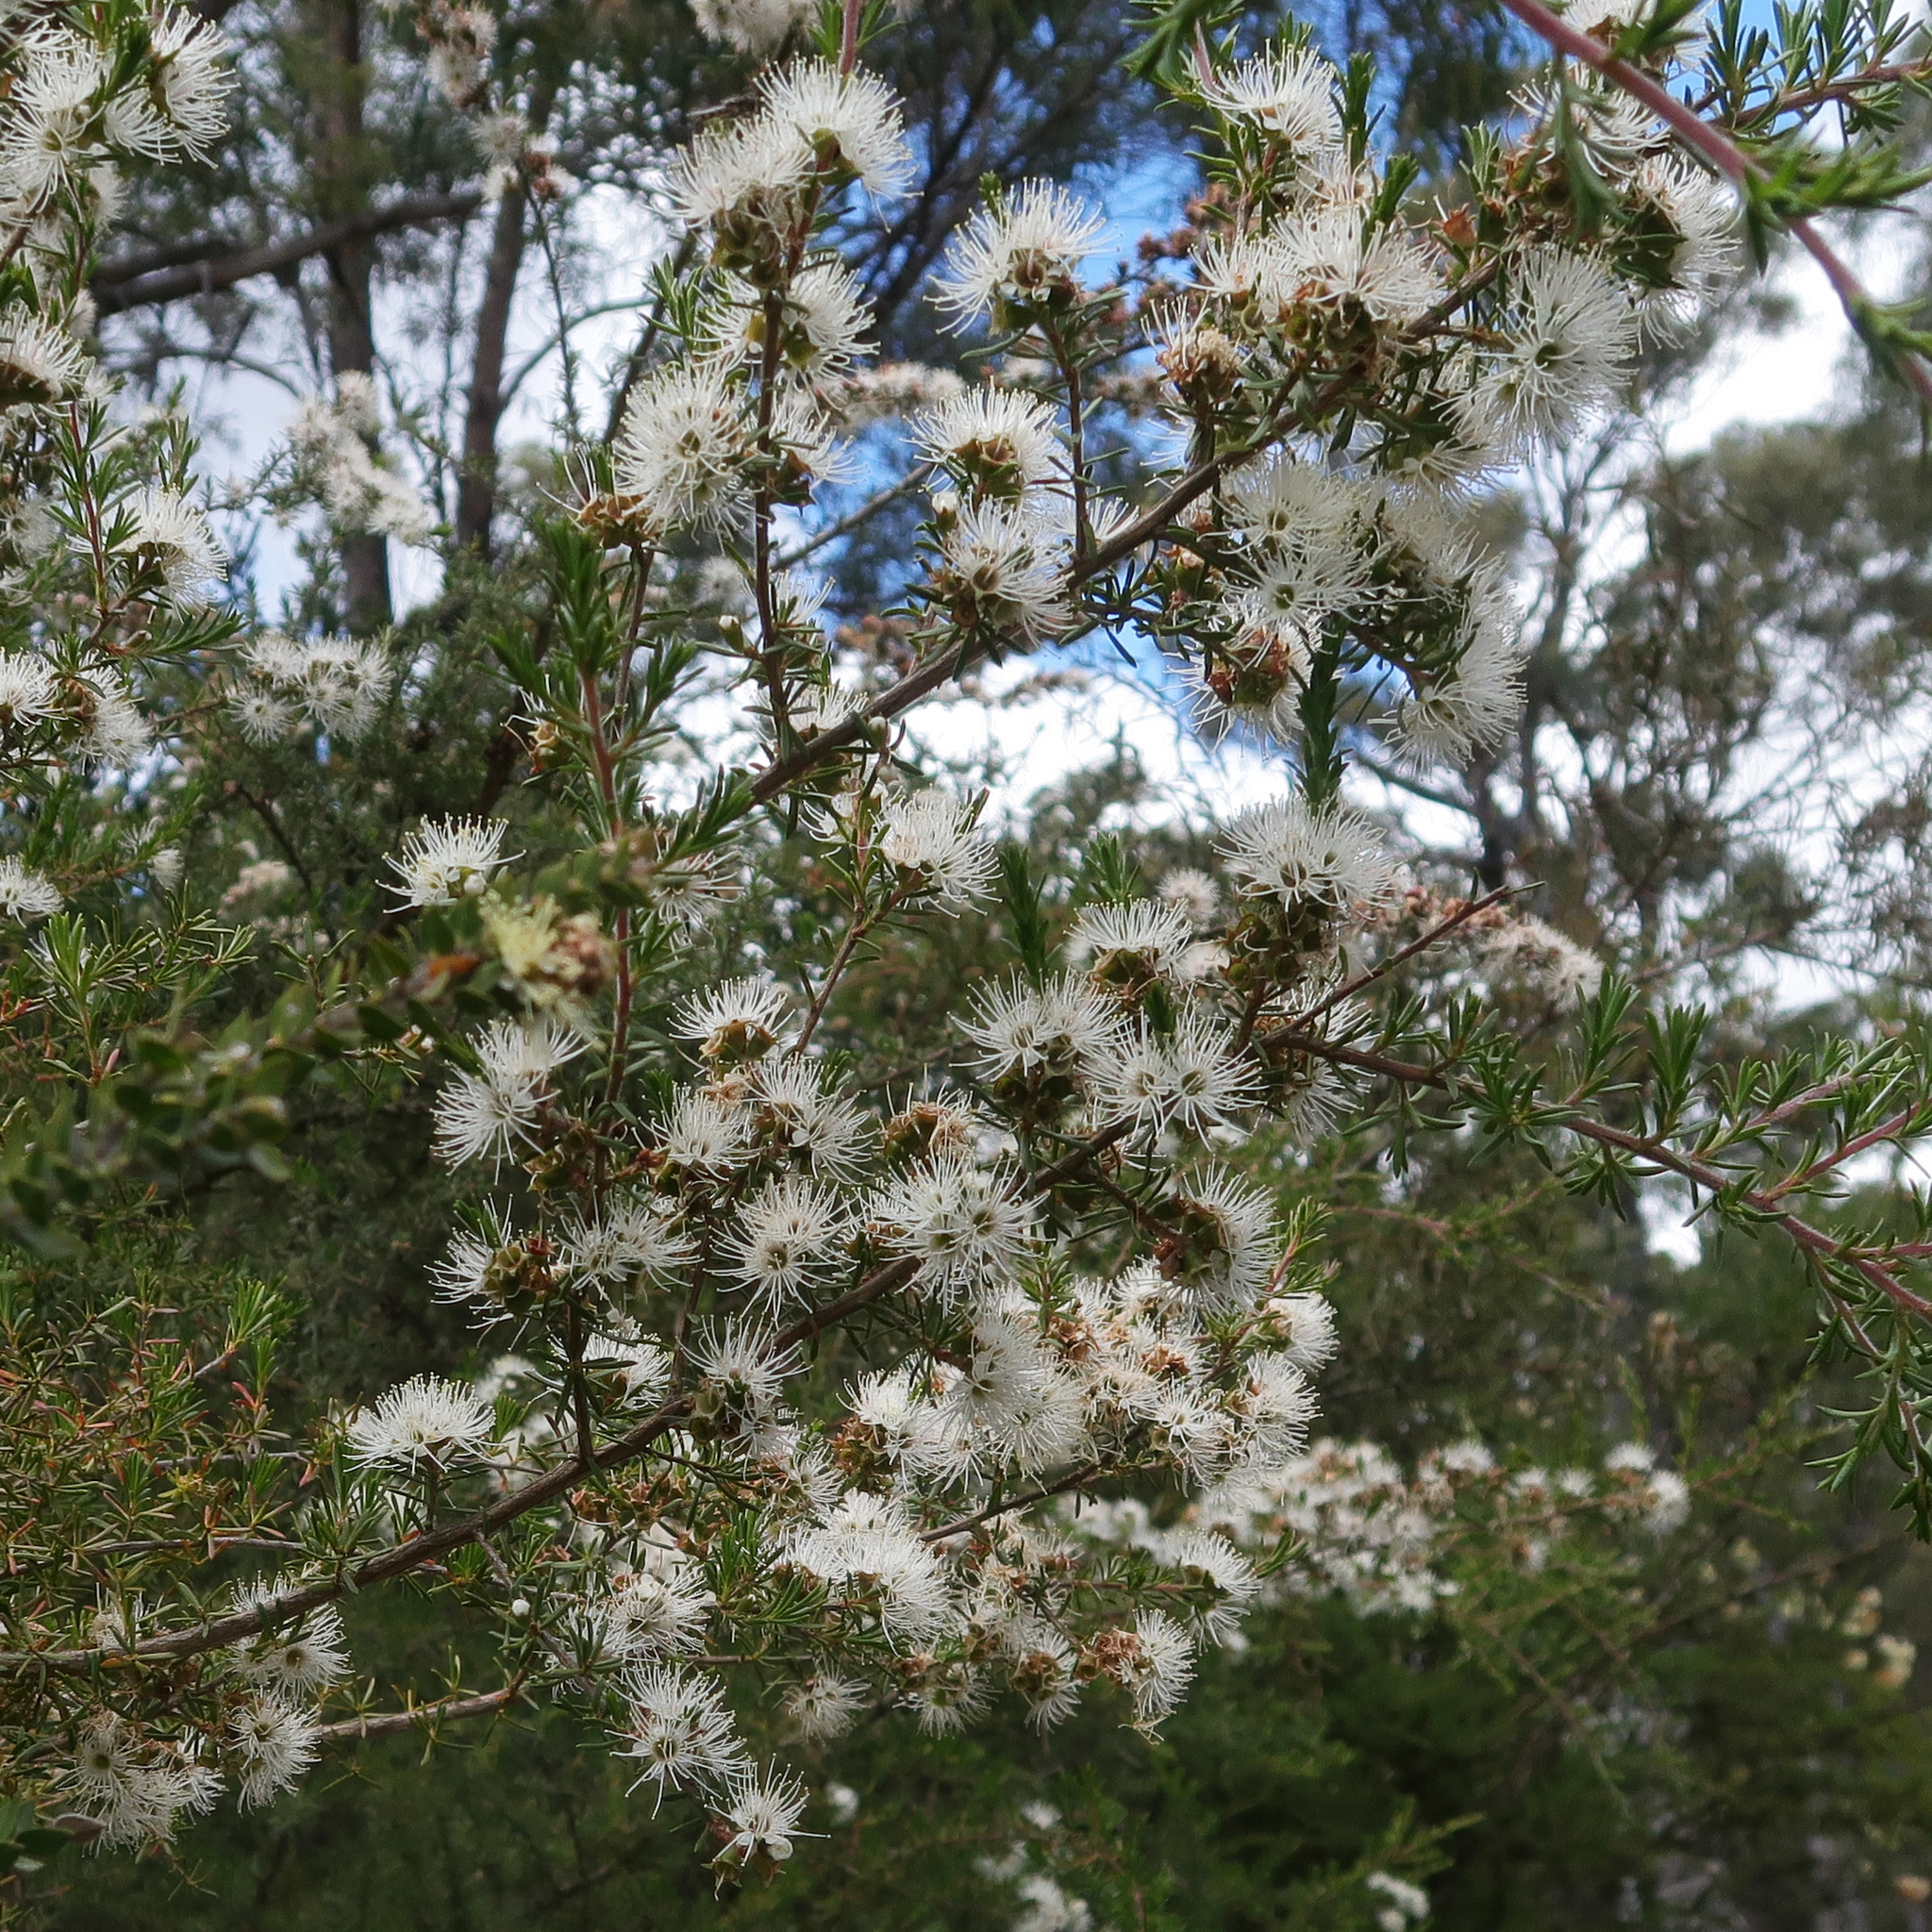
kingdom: Plantae
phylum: Tracheophyta
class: Magnoliopsida
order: Myrtales
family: Myrtaceae
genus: Kunzea
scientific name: Kunzea ambigua
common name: Tickbush
